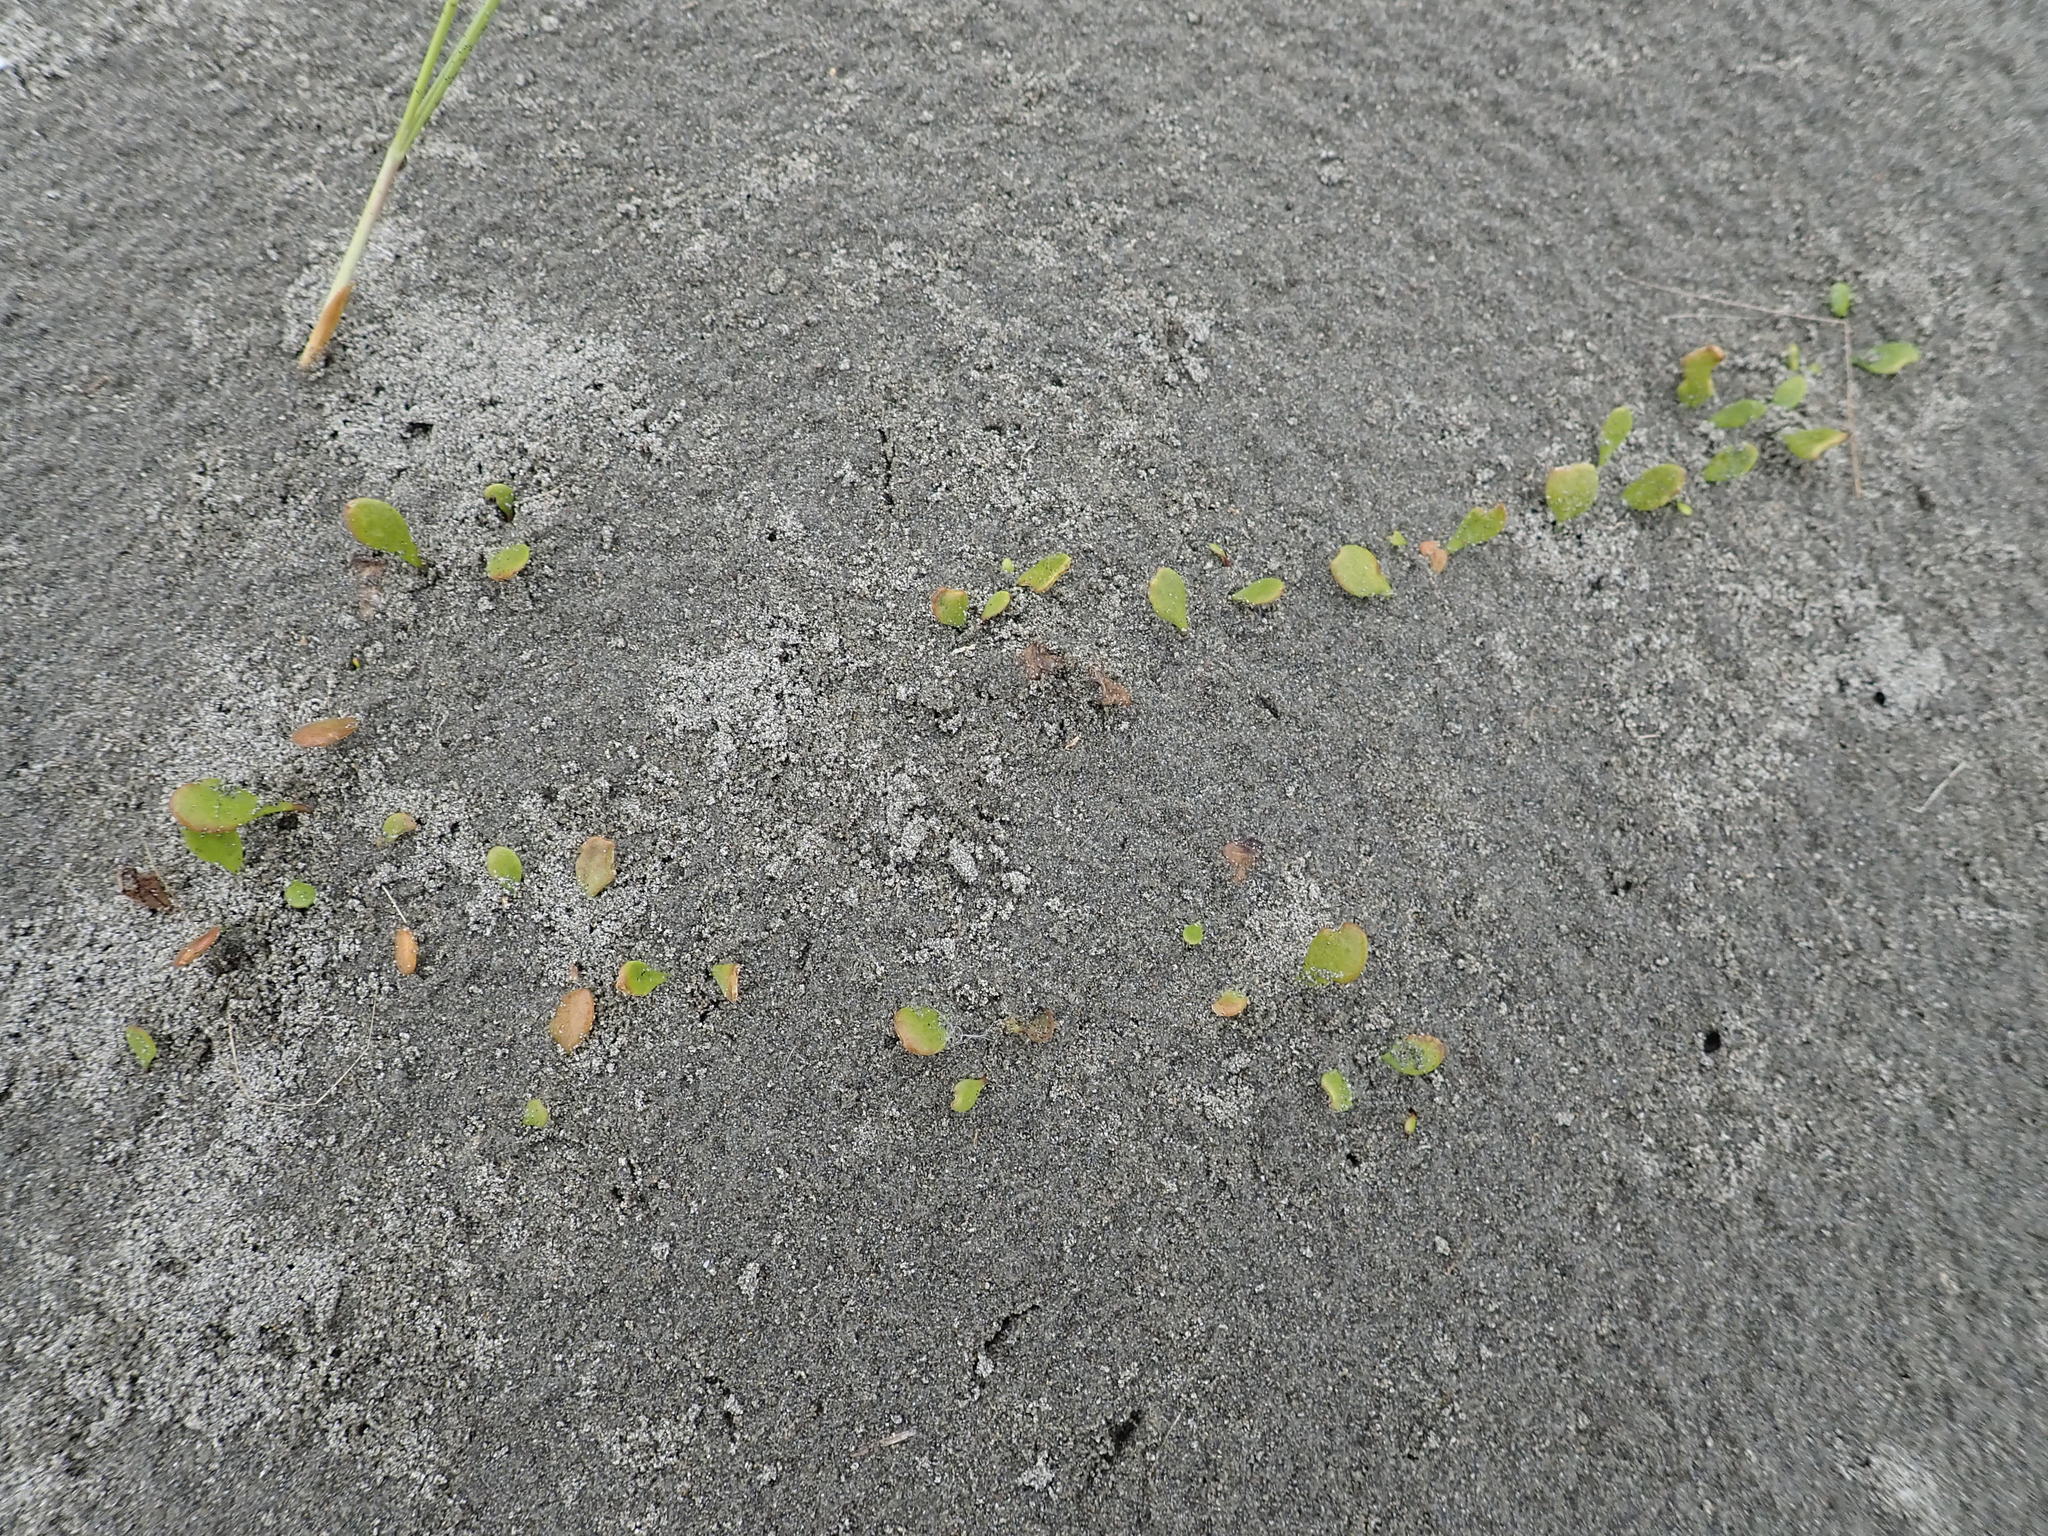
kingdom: Plantae
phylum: Tracheophyta
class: Magnoliopsida
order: Asterales
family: Goodeniaceae
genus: Goodenia
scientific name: Goodenia radicans
